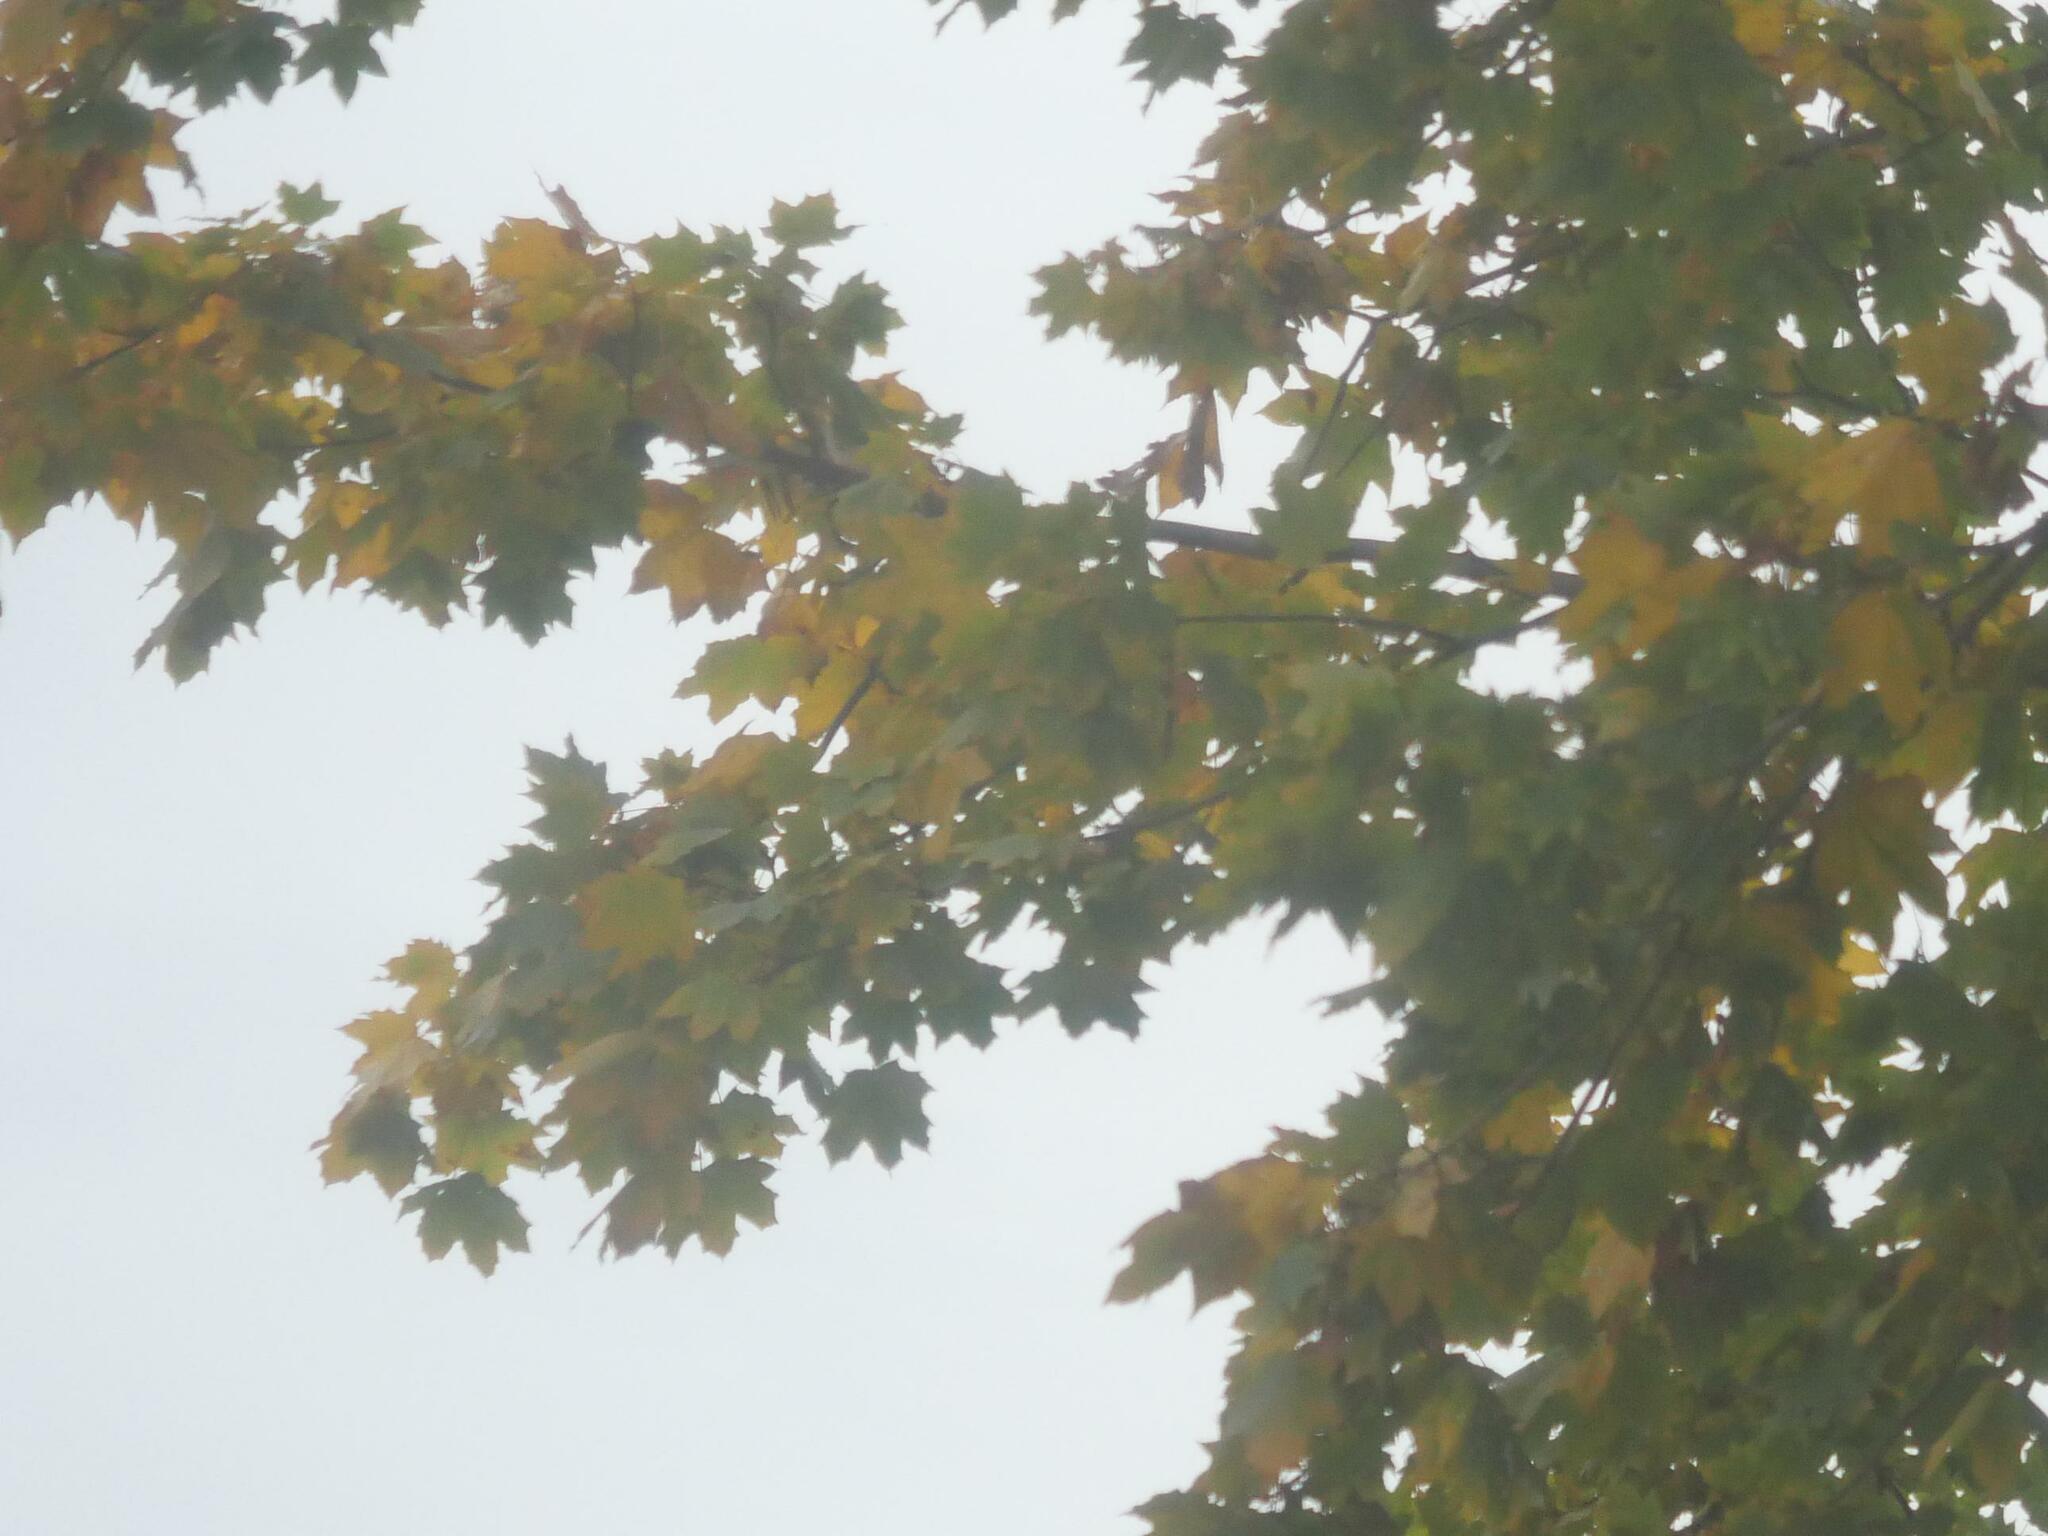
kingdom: Plantae
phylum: Tracheophyta
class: Magnoliopsida
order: Sapindales
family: Sapindaceae
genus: Acer
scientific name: Acer platanoides
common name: Norway maple
